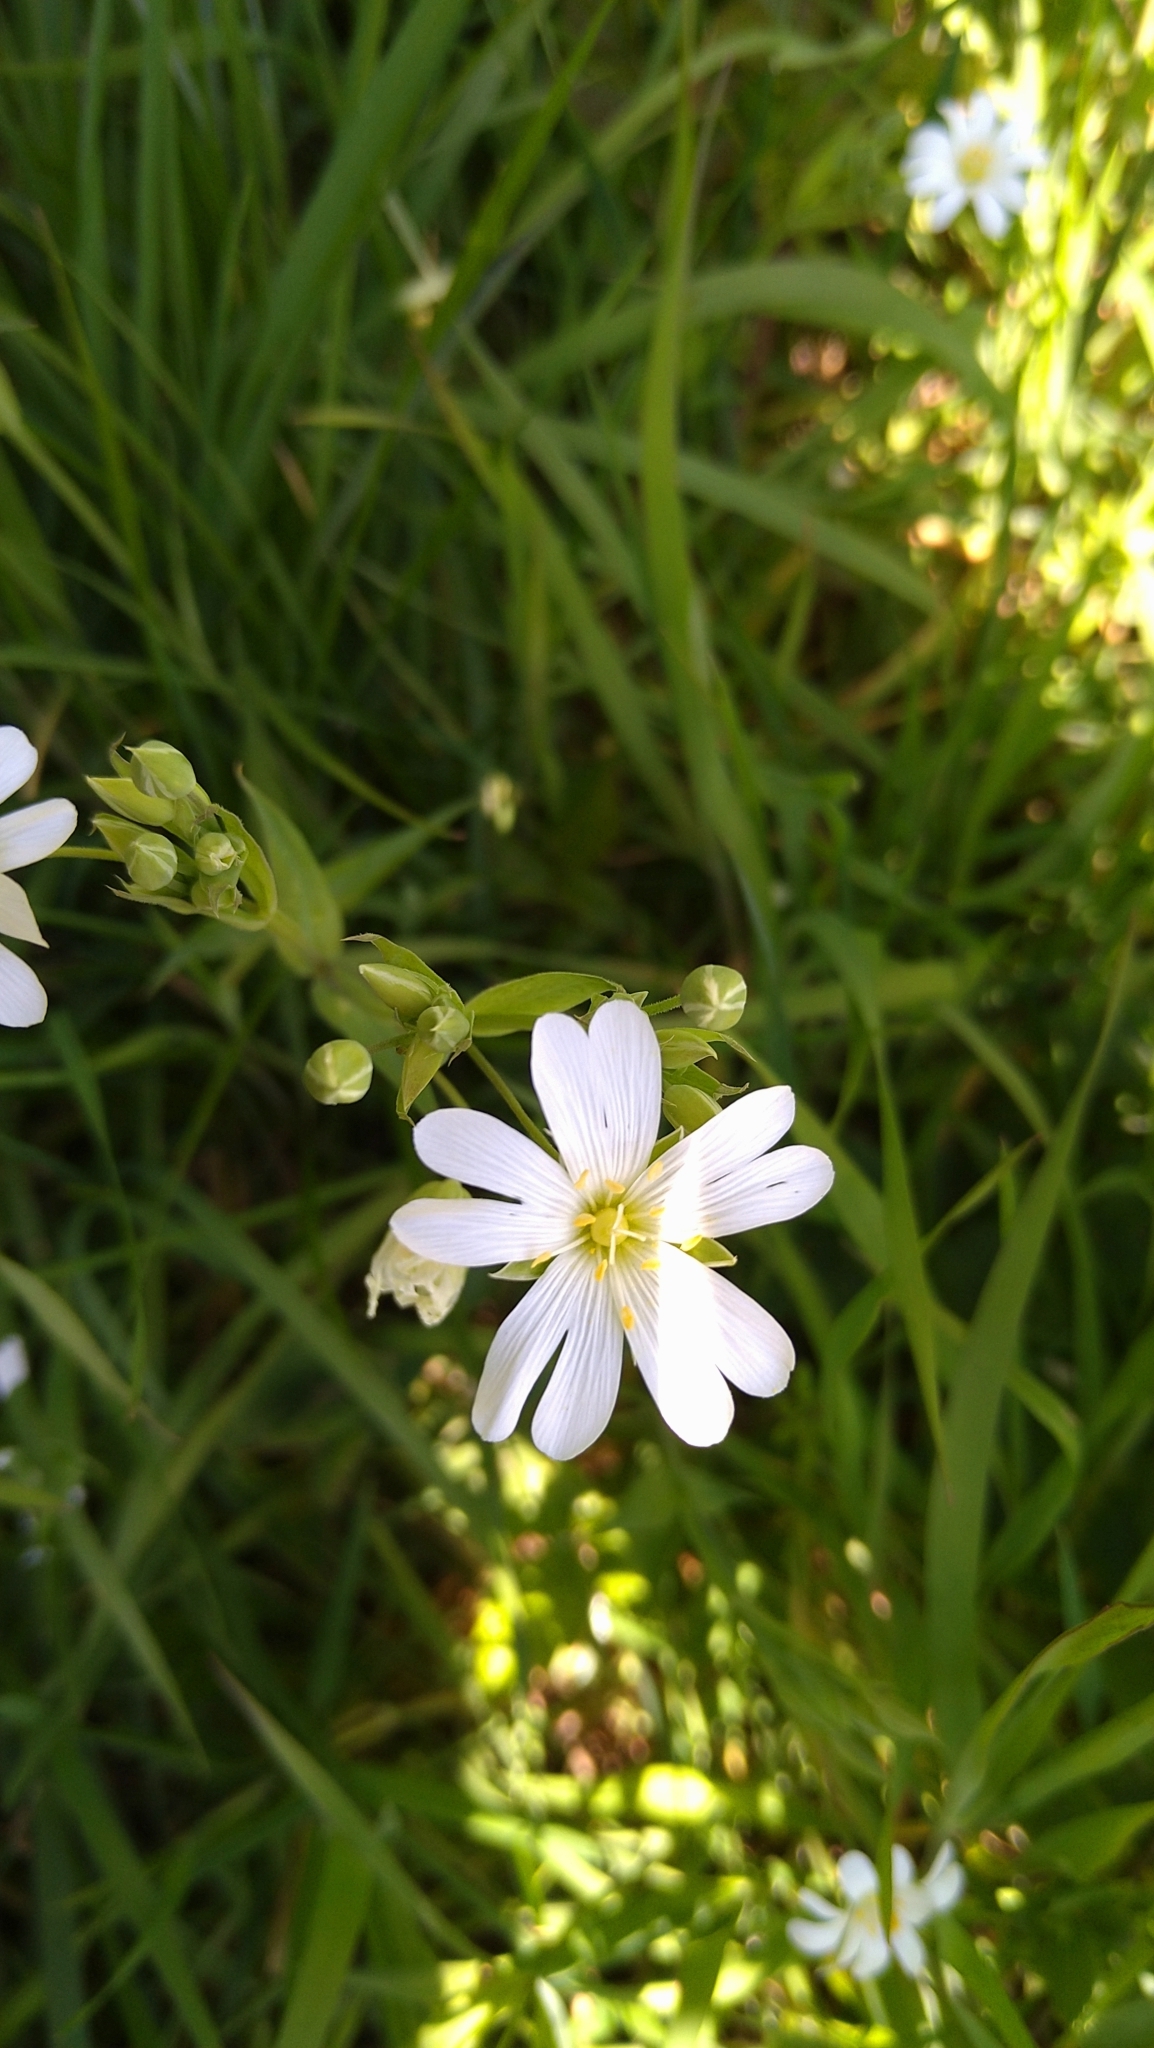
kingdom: Plantae
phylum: Tracheophyta
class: Magnoliopsida
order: Caryophyllales
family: Caryophyllaceae
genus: Rabelera
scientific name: Rabelera holostea
